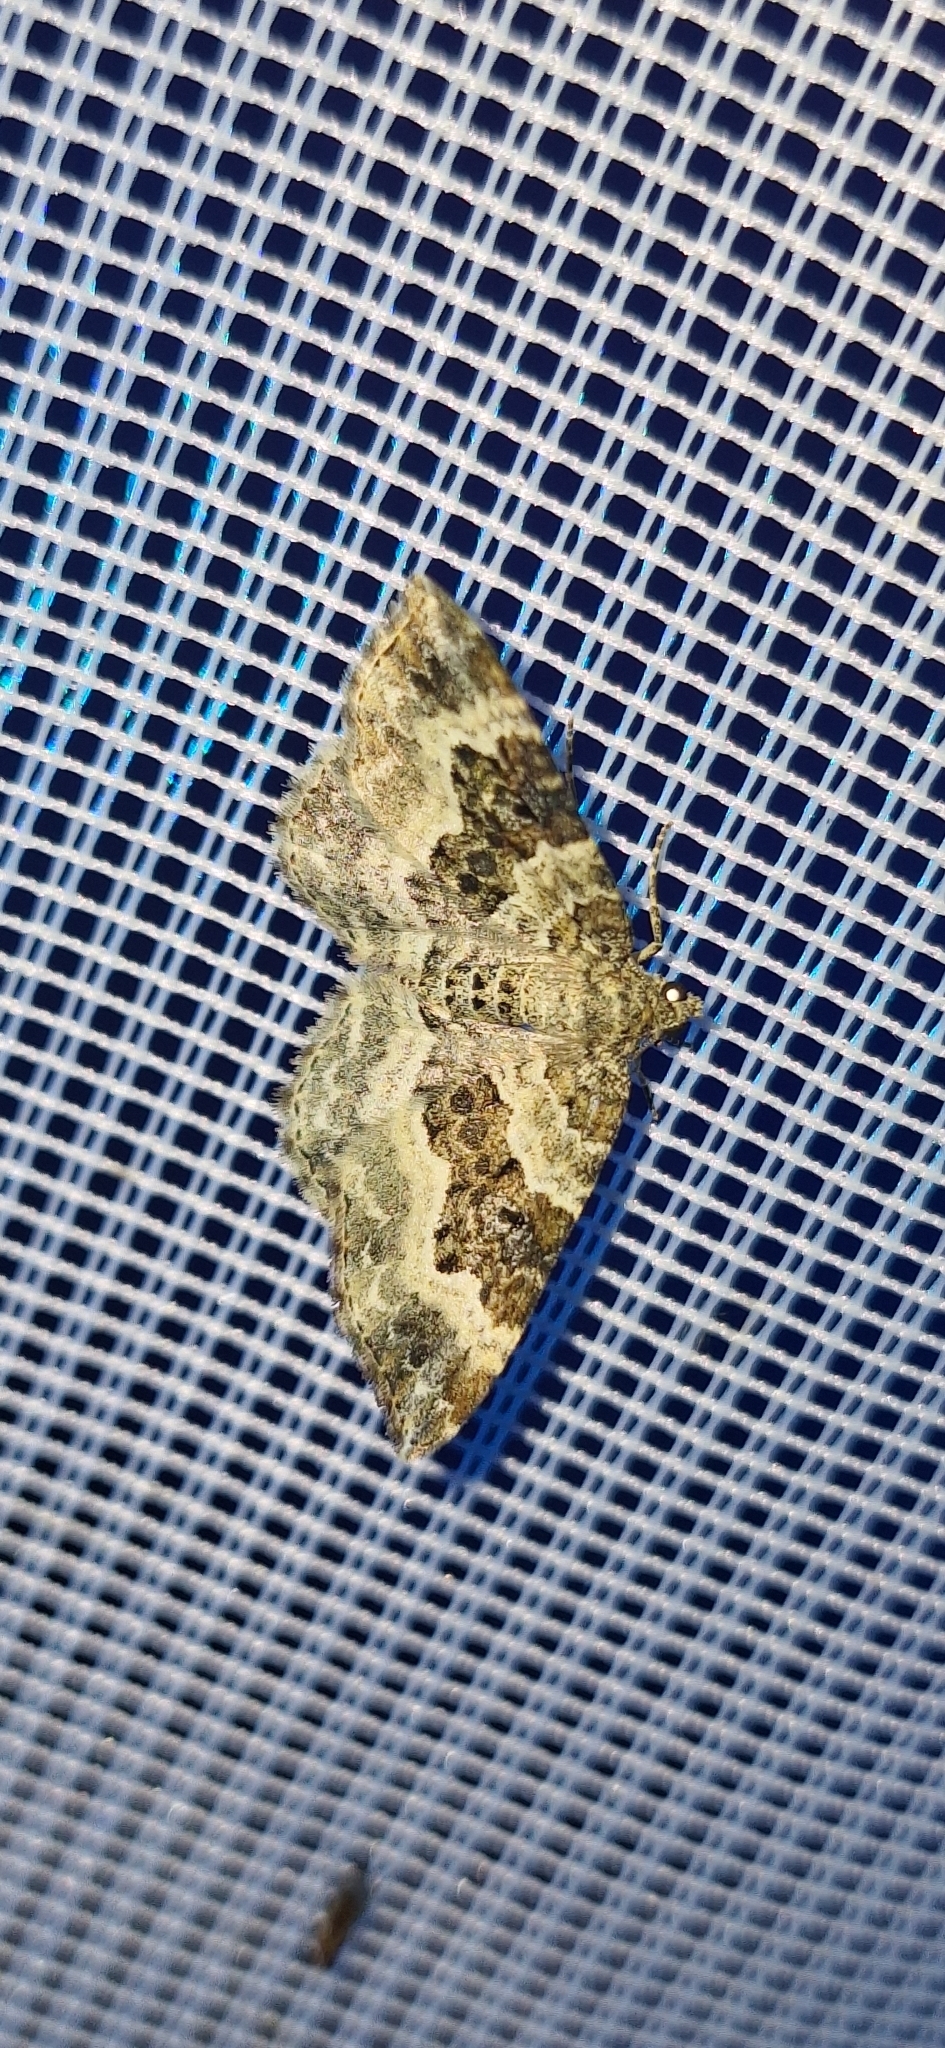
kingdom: Animalia
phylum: Arthropoda
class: Insecta
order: Lepidoptera
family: Geometridae
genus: Epirrhoe
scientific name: Epirrhoe alternata
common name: Common carpet
